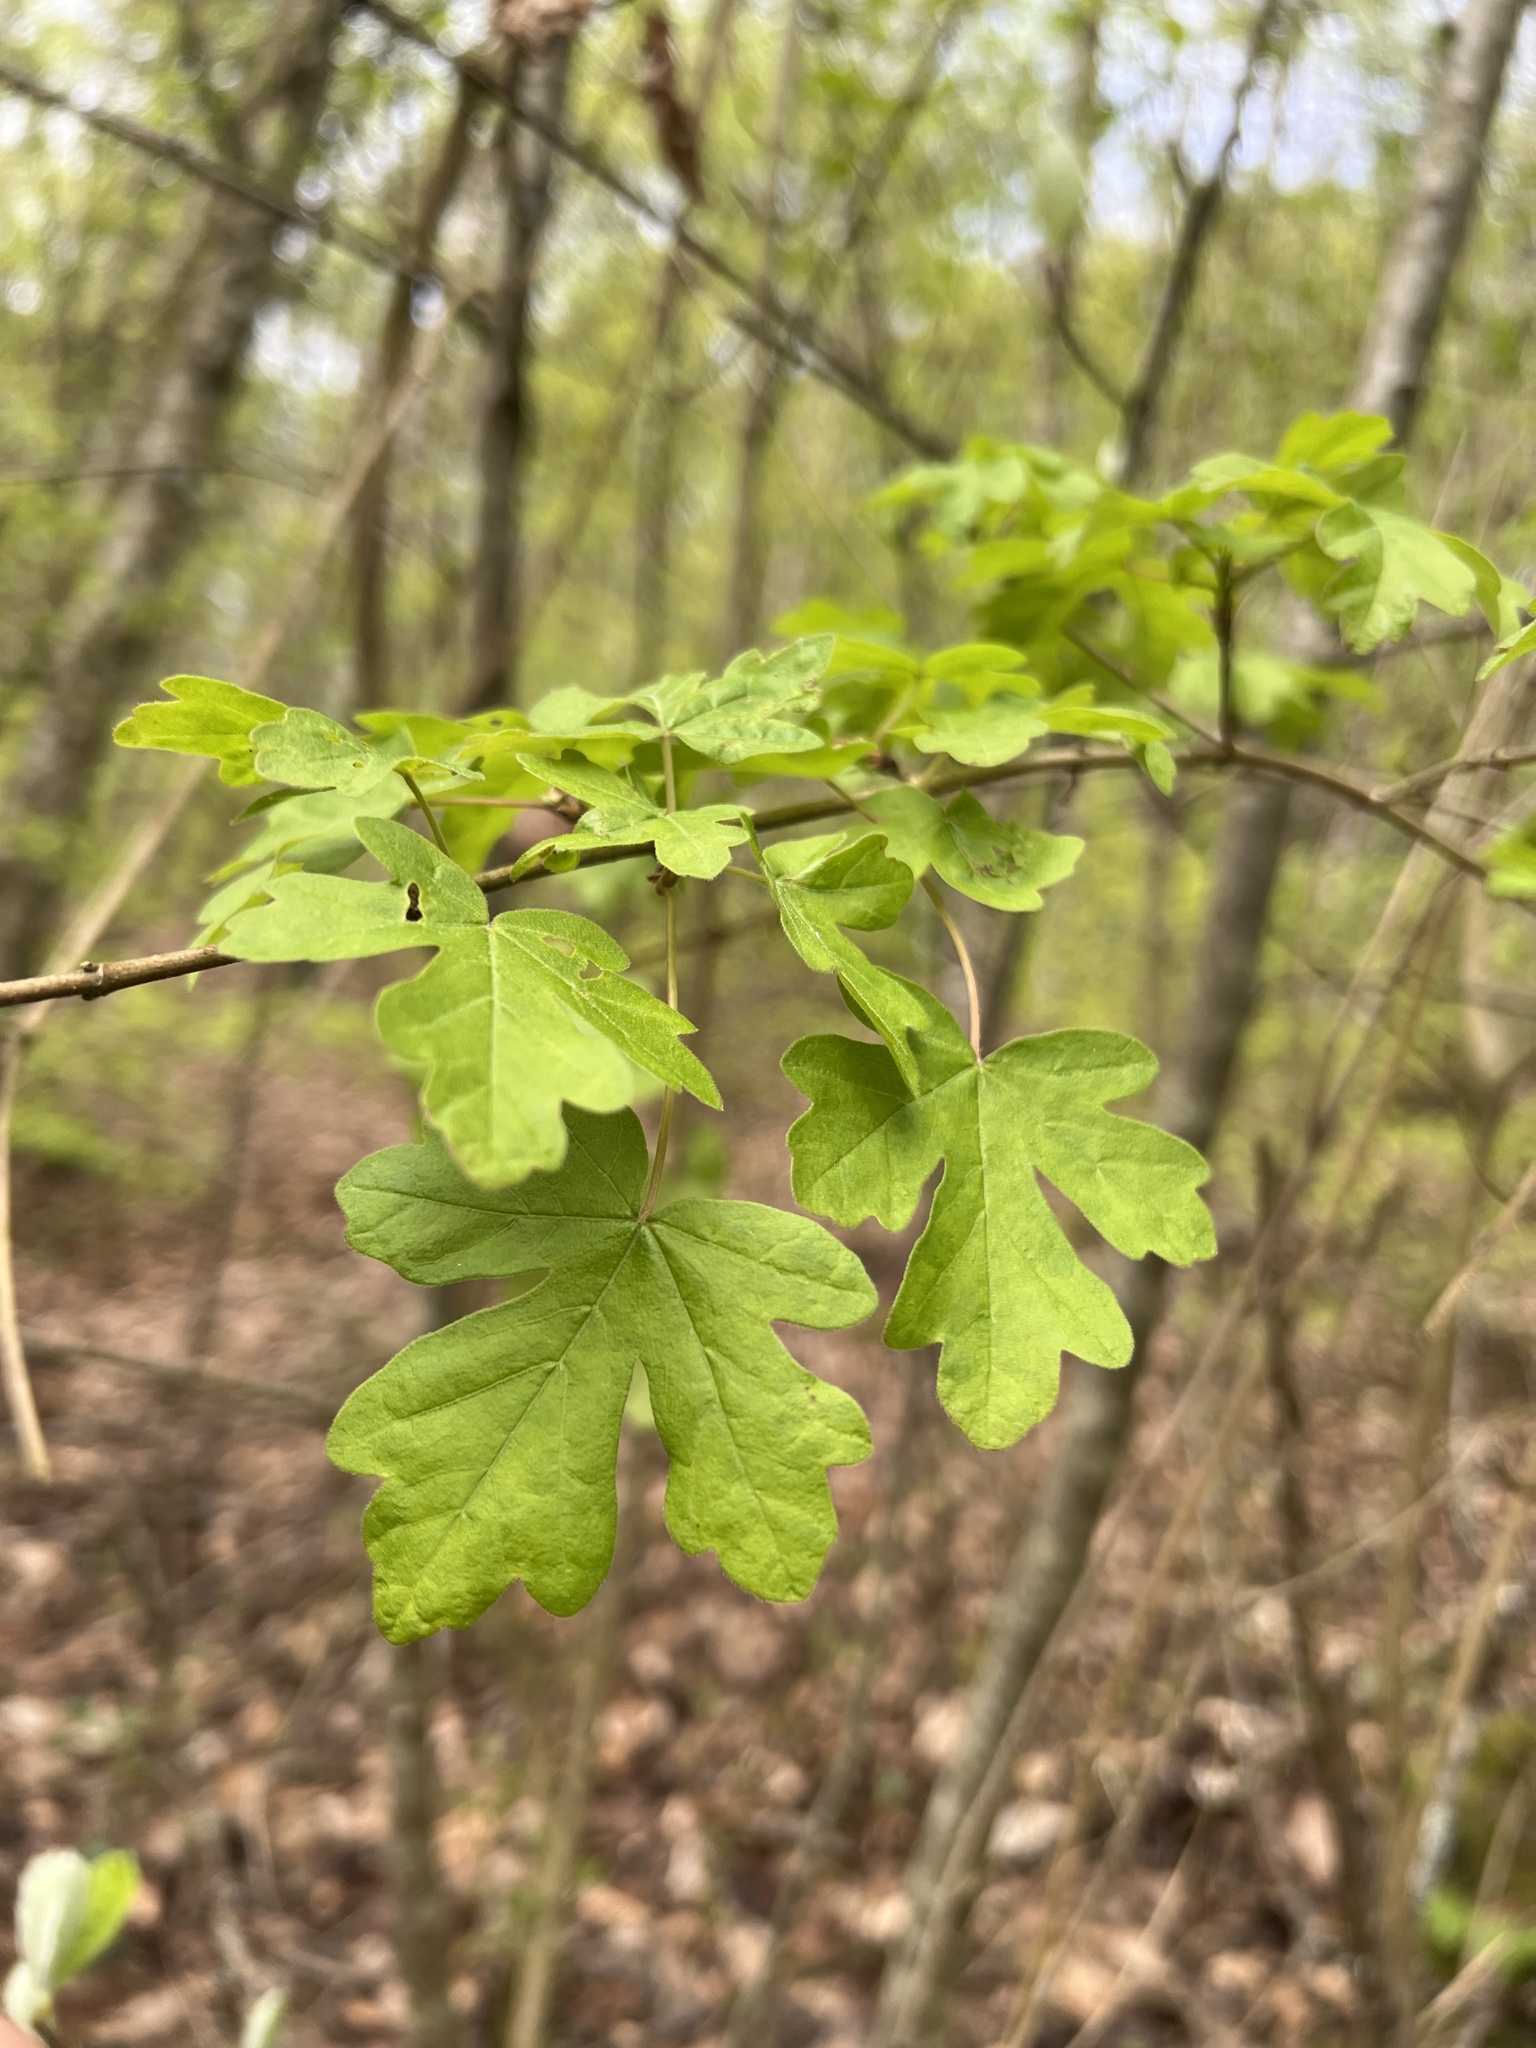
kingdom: Plantae
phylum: Tracheophyta
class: Magnoliopsida
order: Sapindales
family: Sapindaceae
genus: Acer
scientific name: Acer campestre
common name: Field maple
